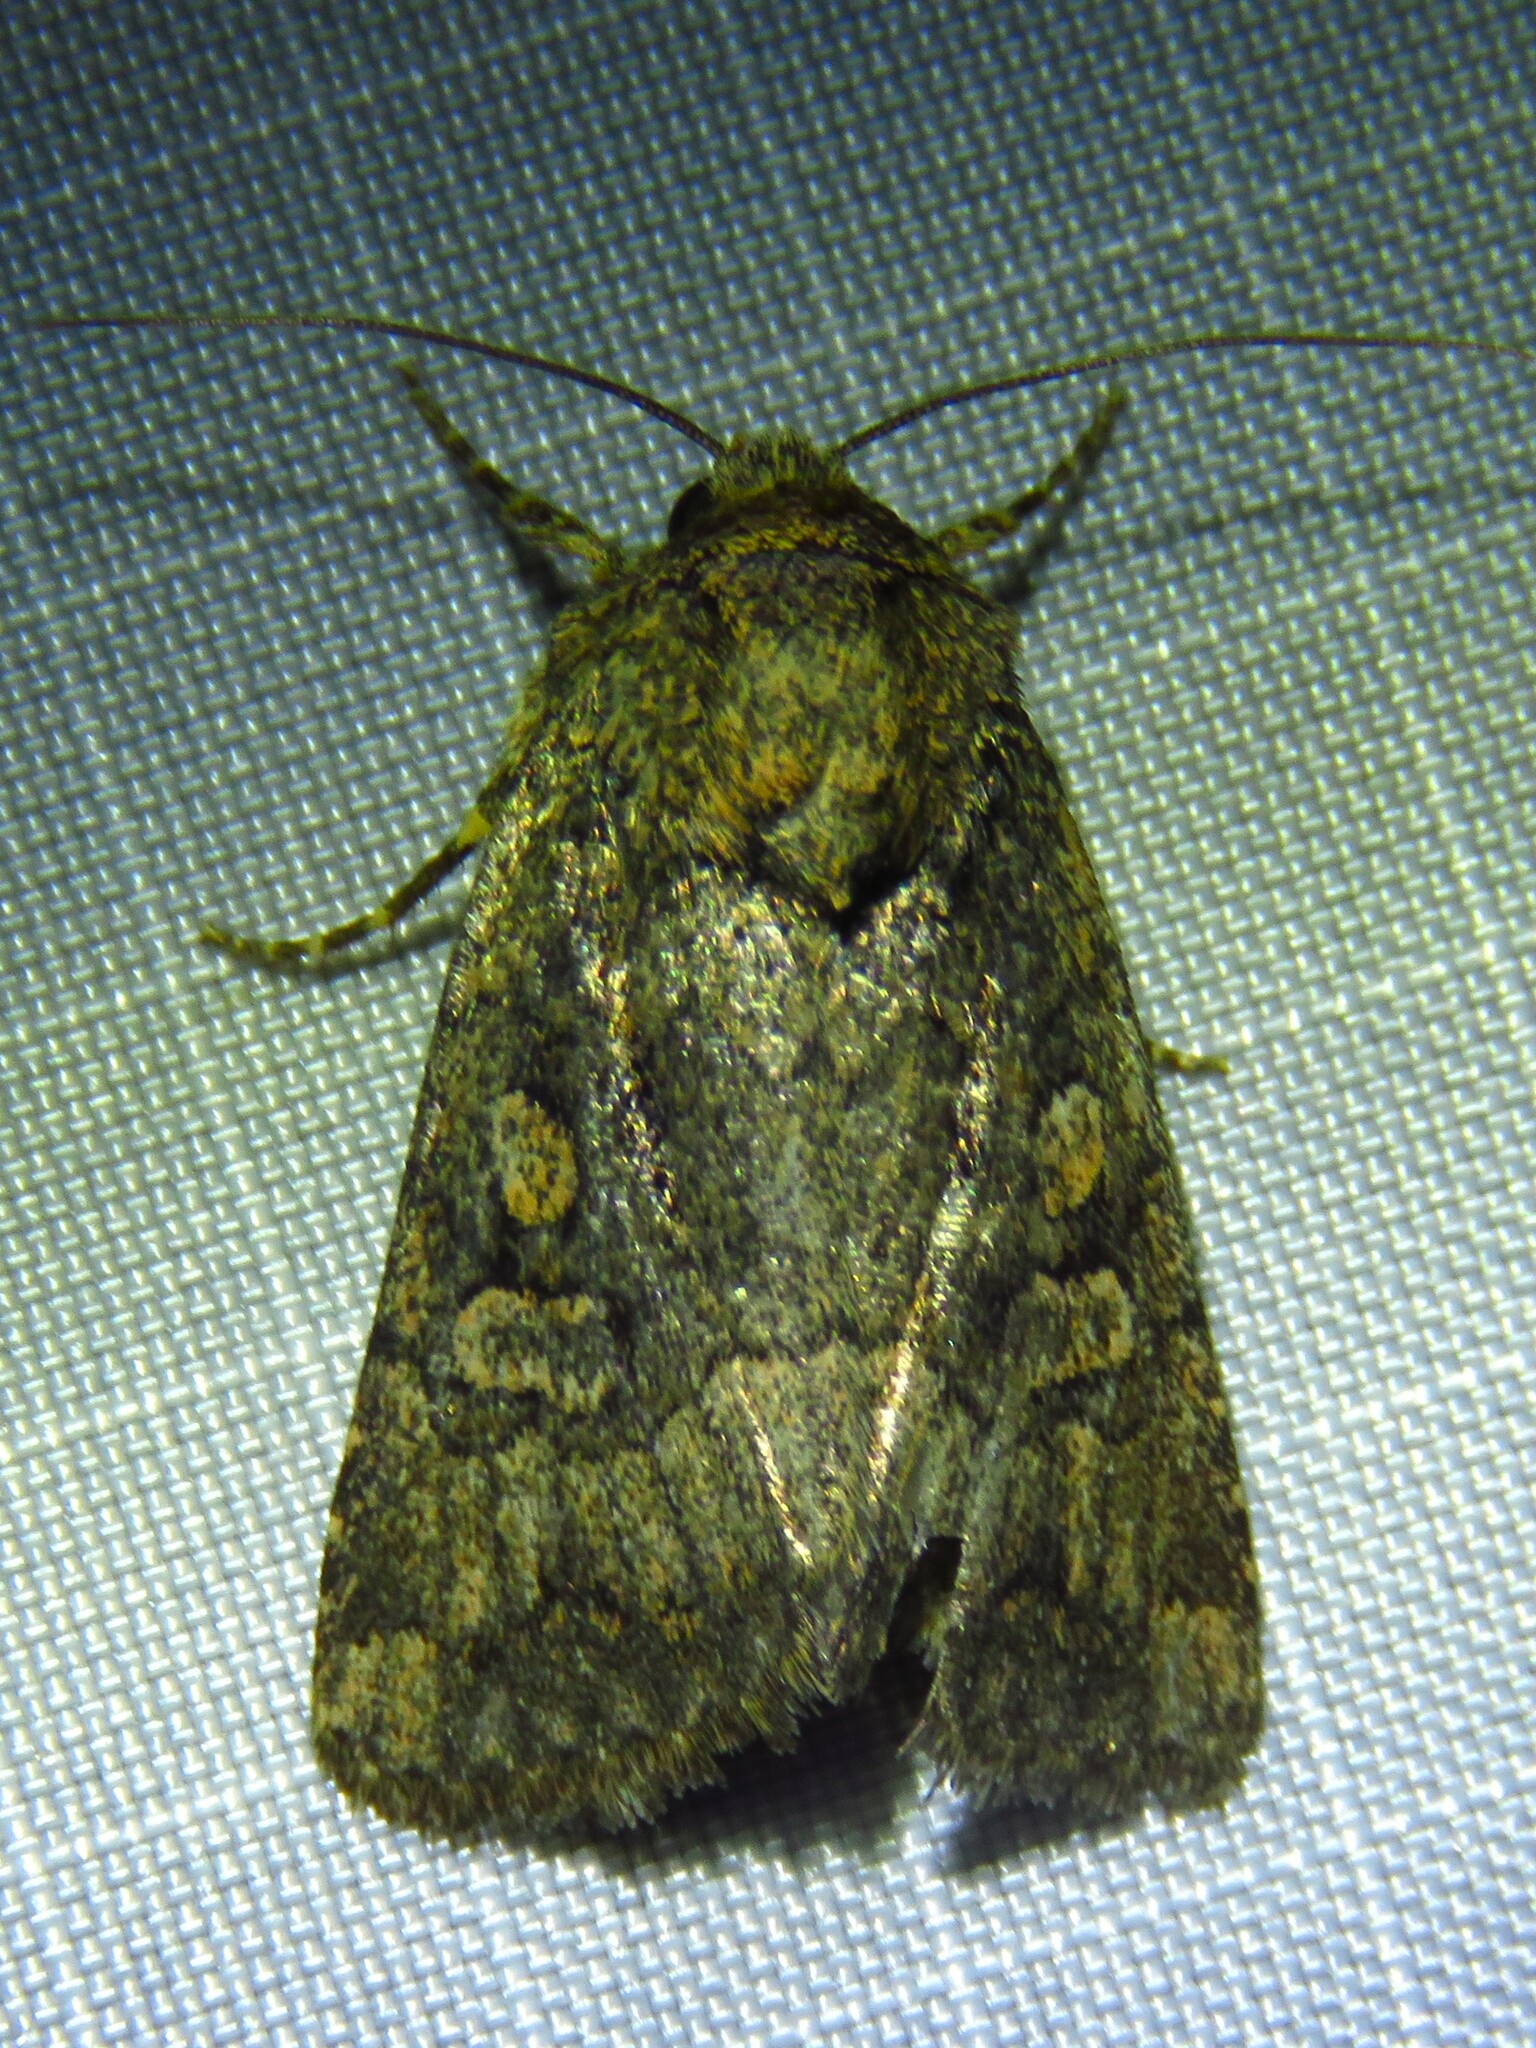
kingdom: Animalia
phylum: Arthropoda
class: Insecta
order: Lepidoptera
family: Noctuidae
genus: Protorthodes
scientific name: Protorthodes texana
